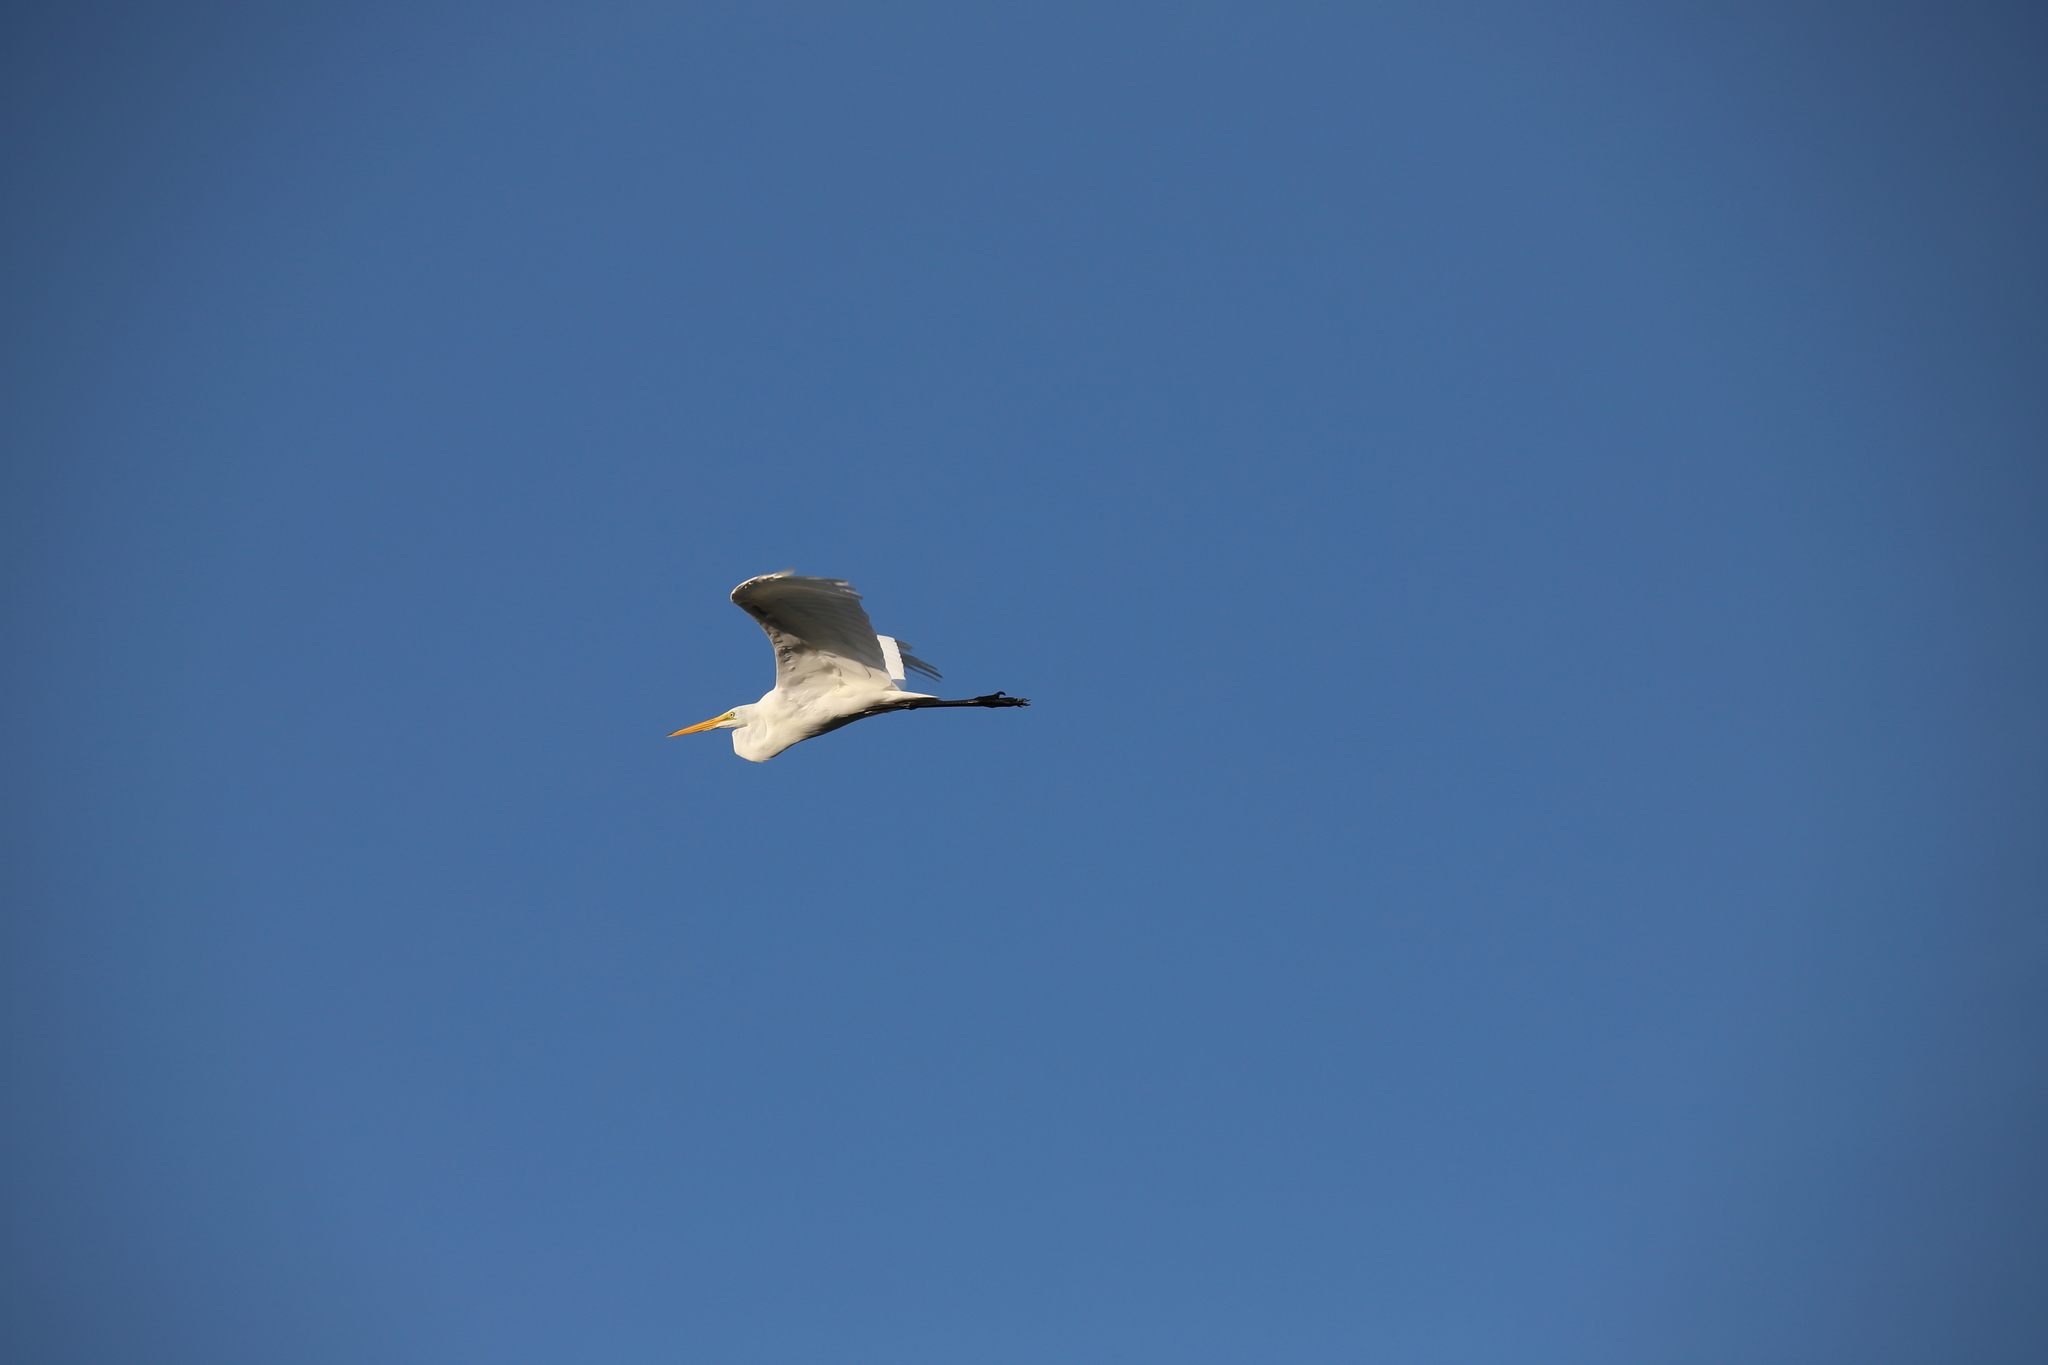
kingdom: Animalia
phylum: Chordata
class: Aves
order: Pelecaniformes
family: Ardeidae
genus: Ardea
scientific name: Ardea alba
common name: Great egret
